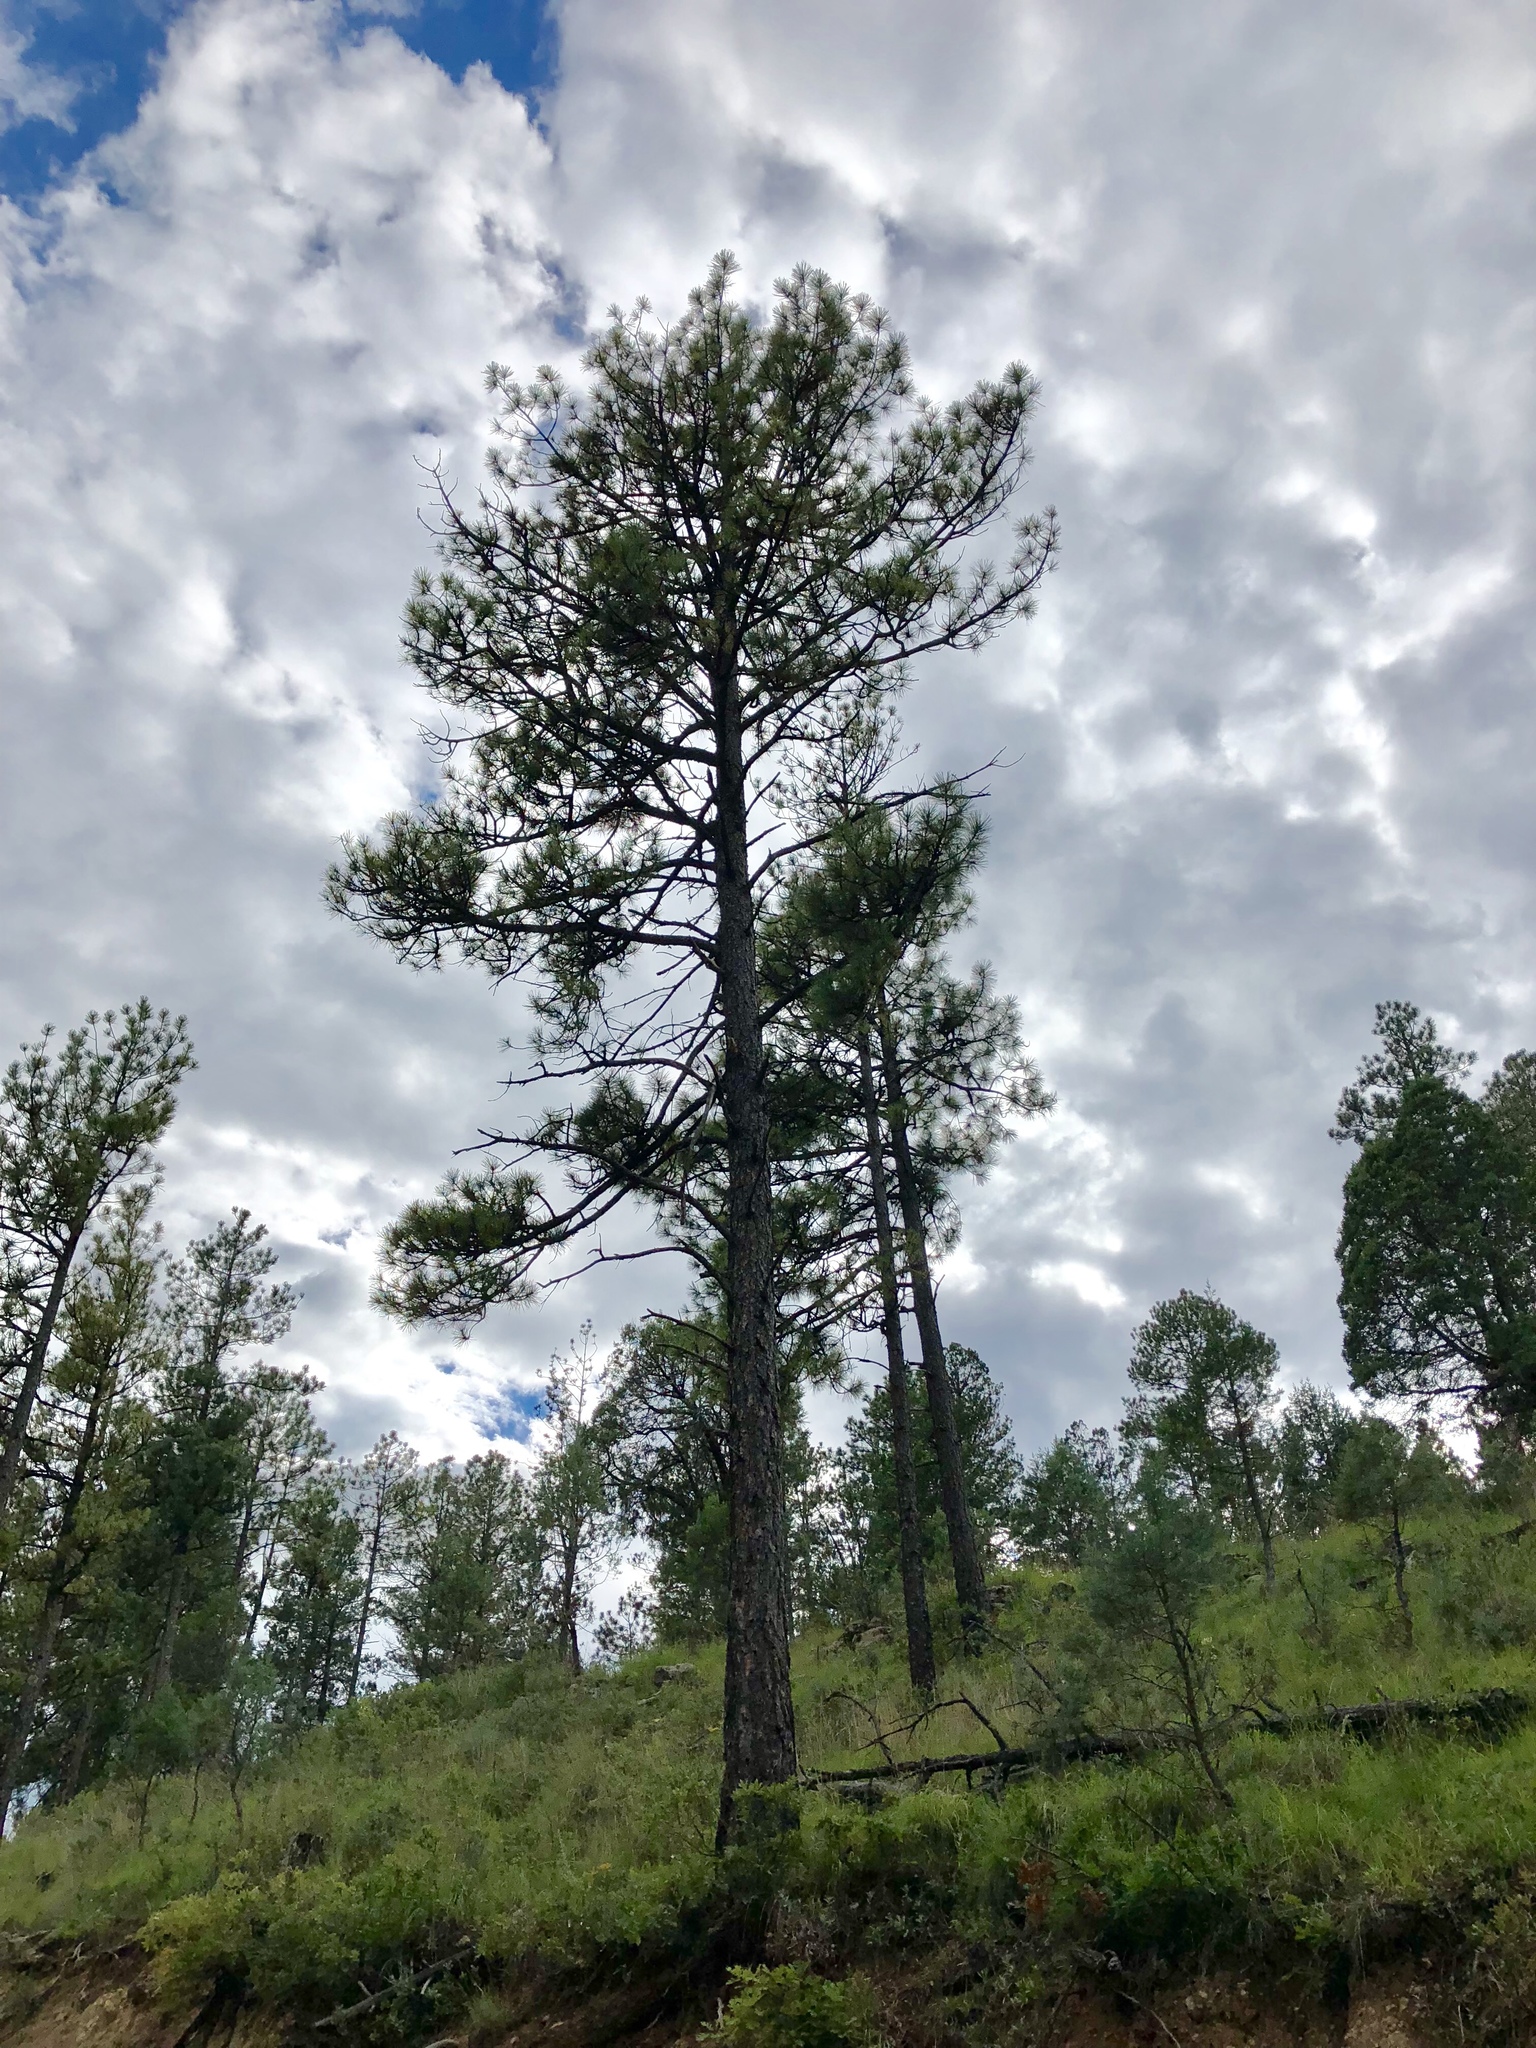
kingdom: Plantae
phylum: Tracheophyta
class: Pinopsida
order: Pinales
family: Pinaceae
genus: Pinus
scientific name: Pinus ponderosa
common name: Western yellow-pine
